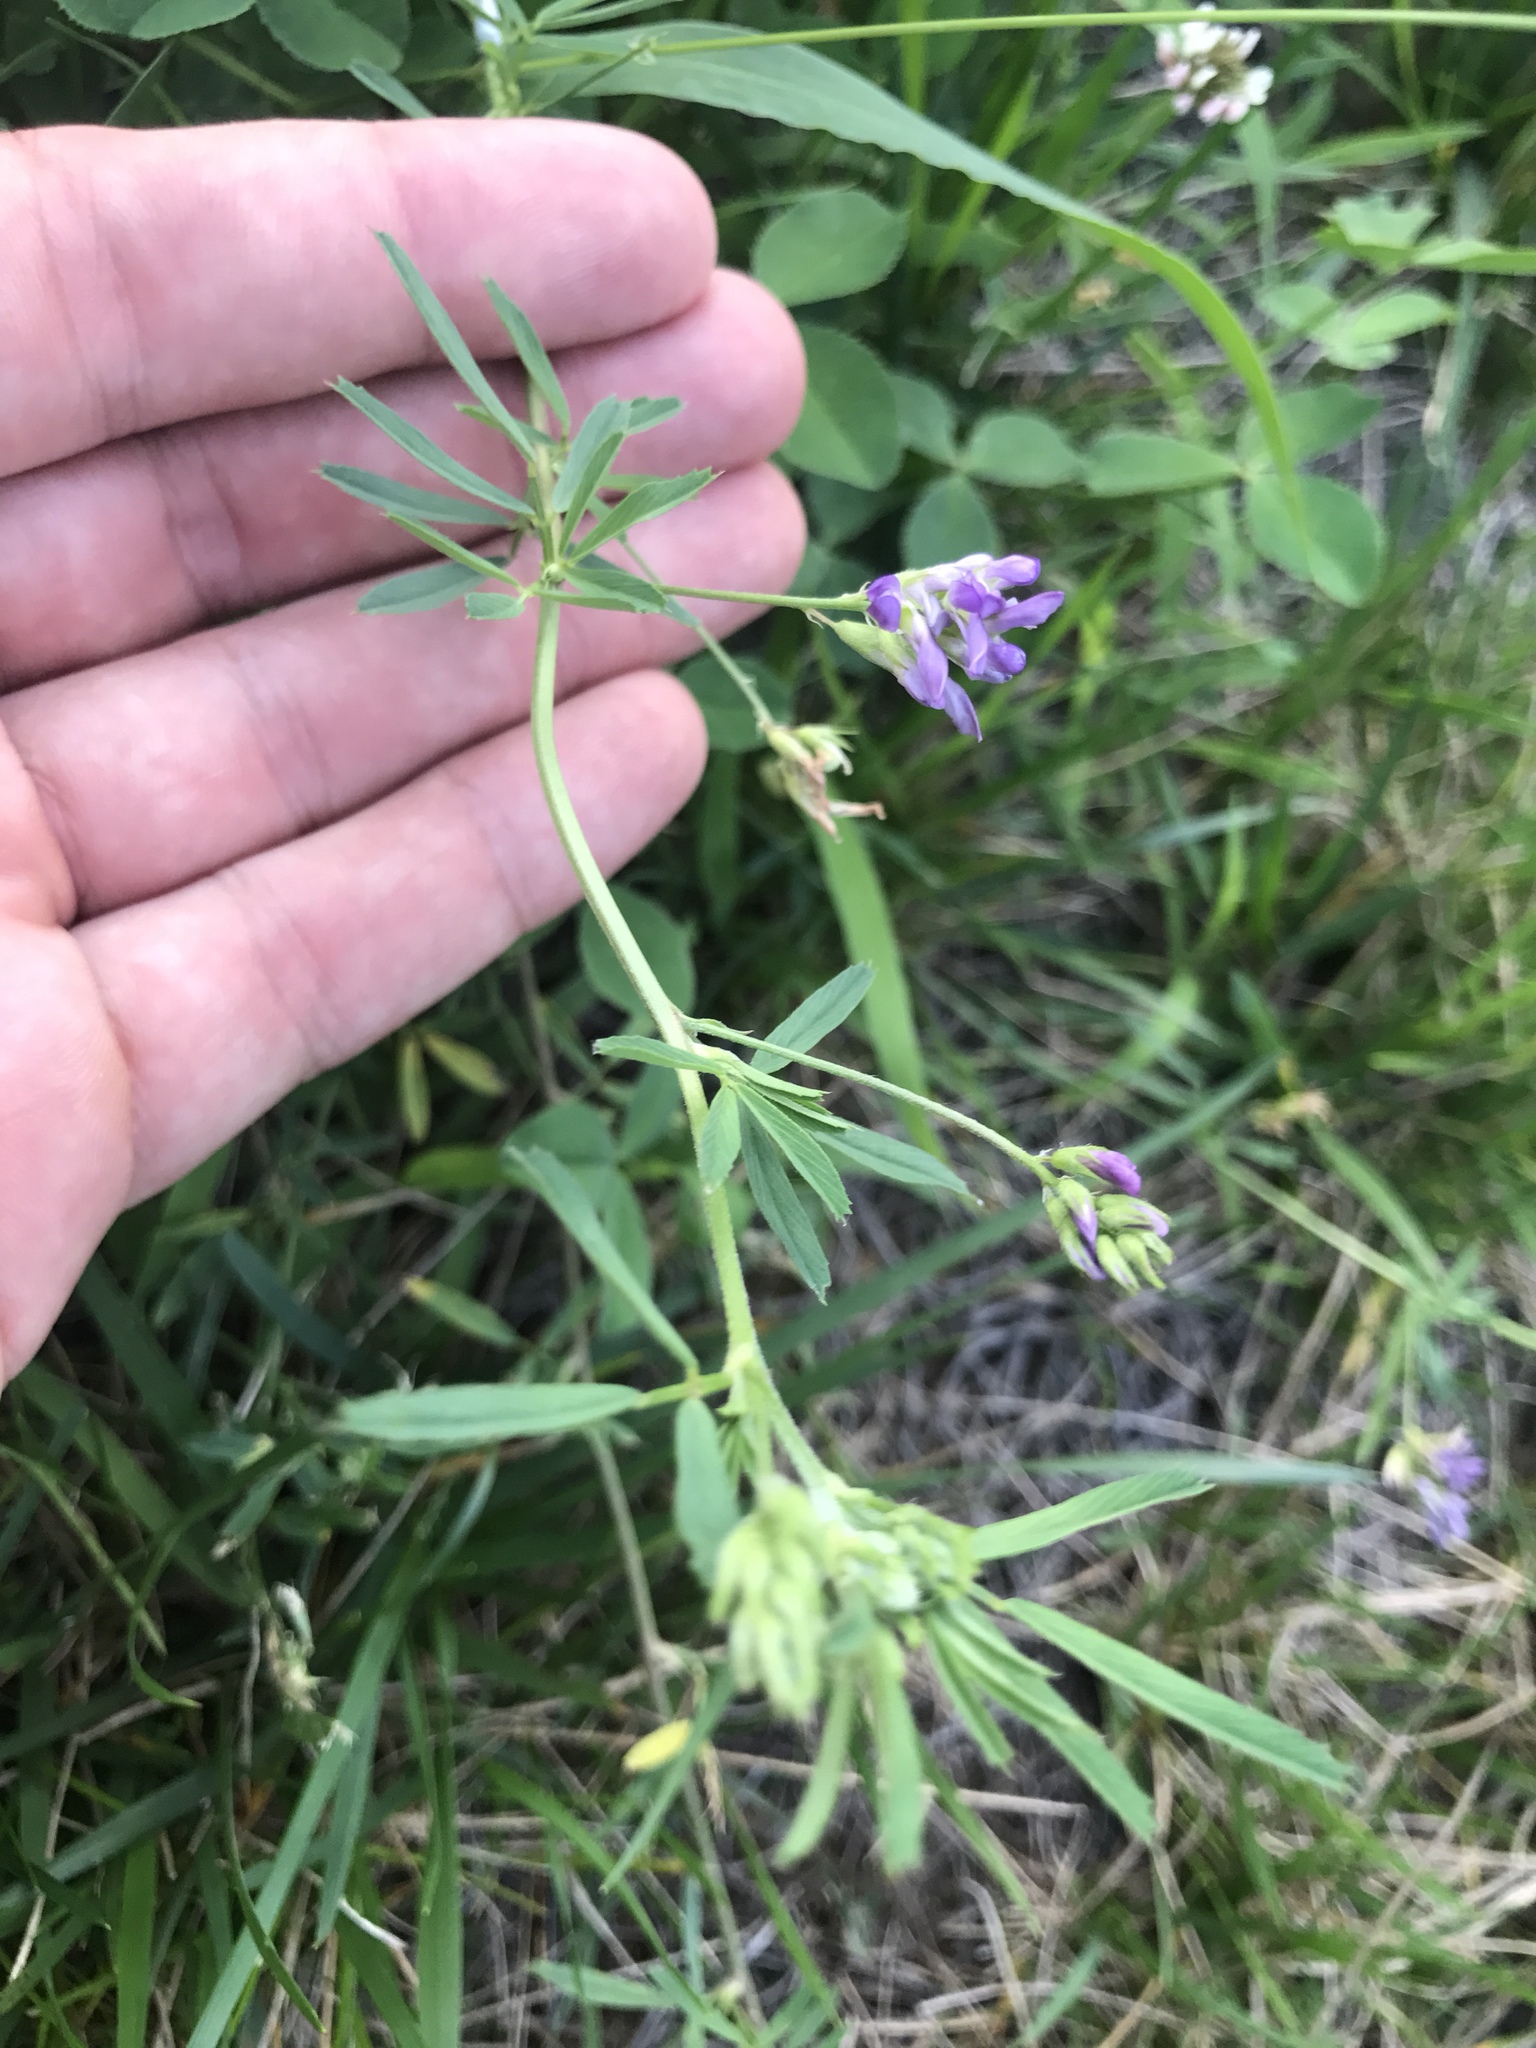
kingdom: Plantae
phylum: Tracheophyta
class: Magnoliopsida
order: Fabales
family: Fabaceae
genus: Medicago
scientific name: Medicago sativa
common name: Alfalfa
